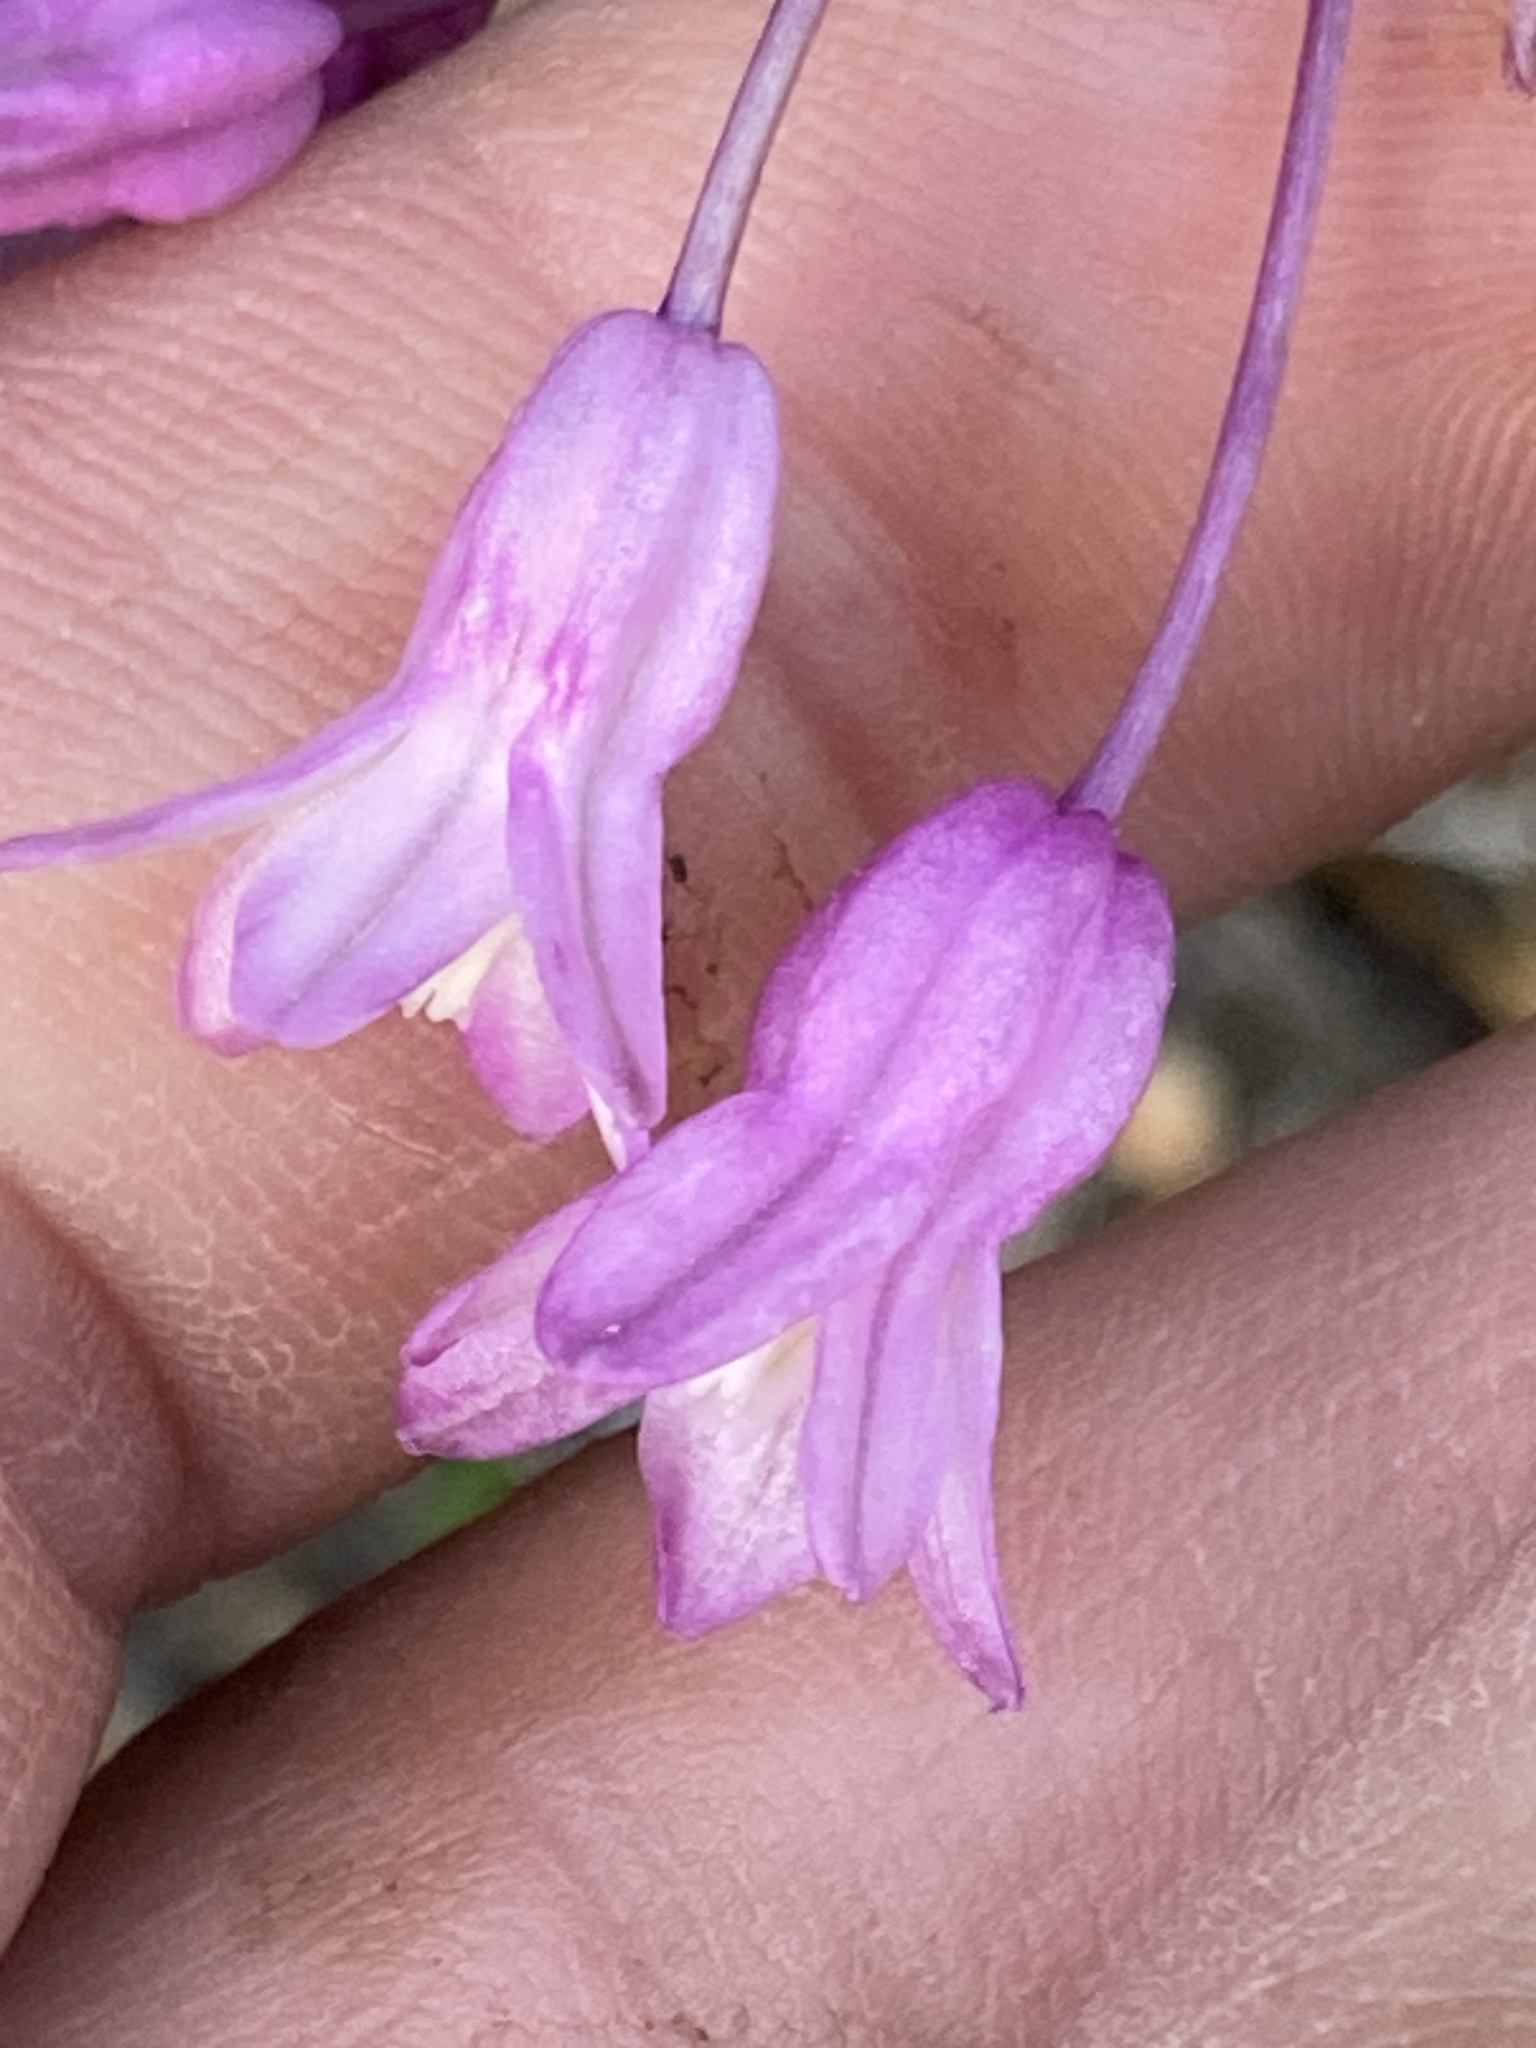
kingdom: Plantae
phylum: Tracheophyta
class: Liliopsida
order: Asparagales
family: Asparagaceae
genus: Dichelostemma
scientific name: Dichelostemma volubile
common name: Trining brodiaea
